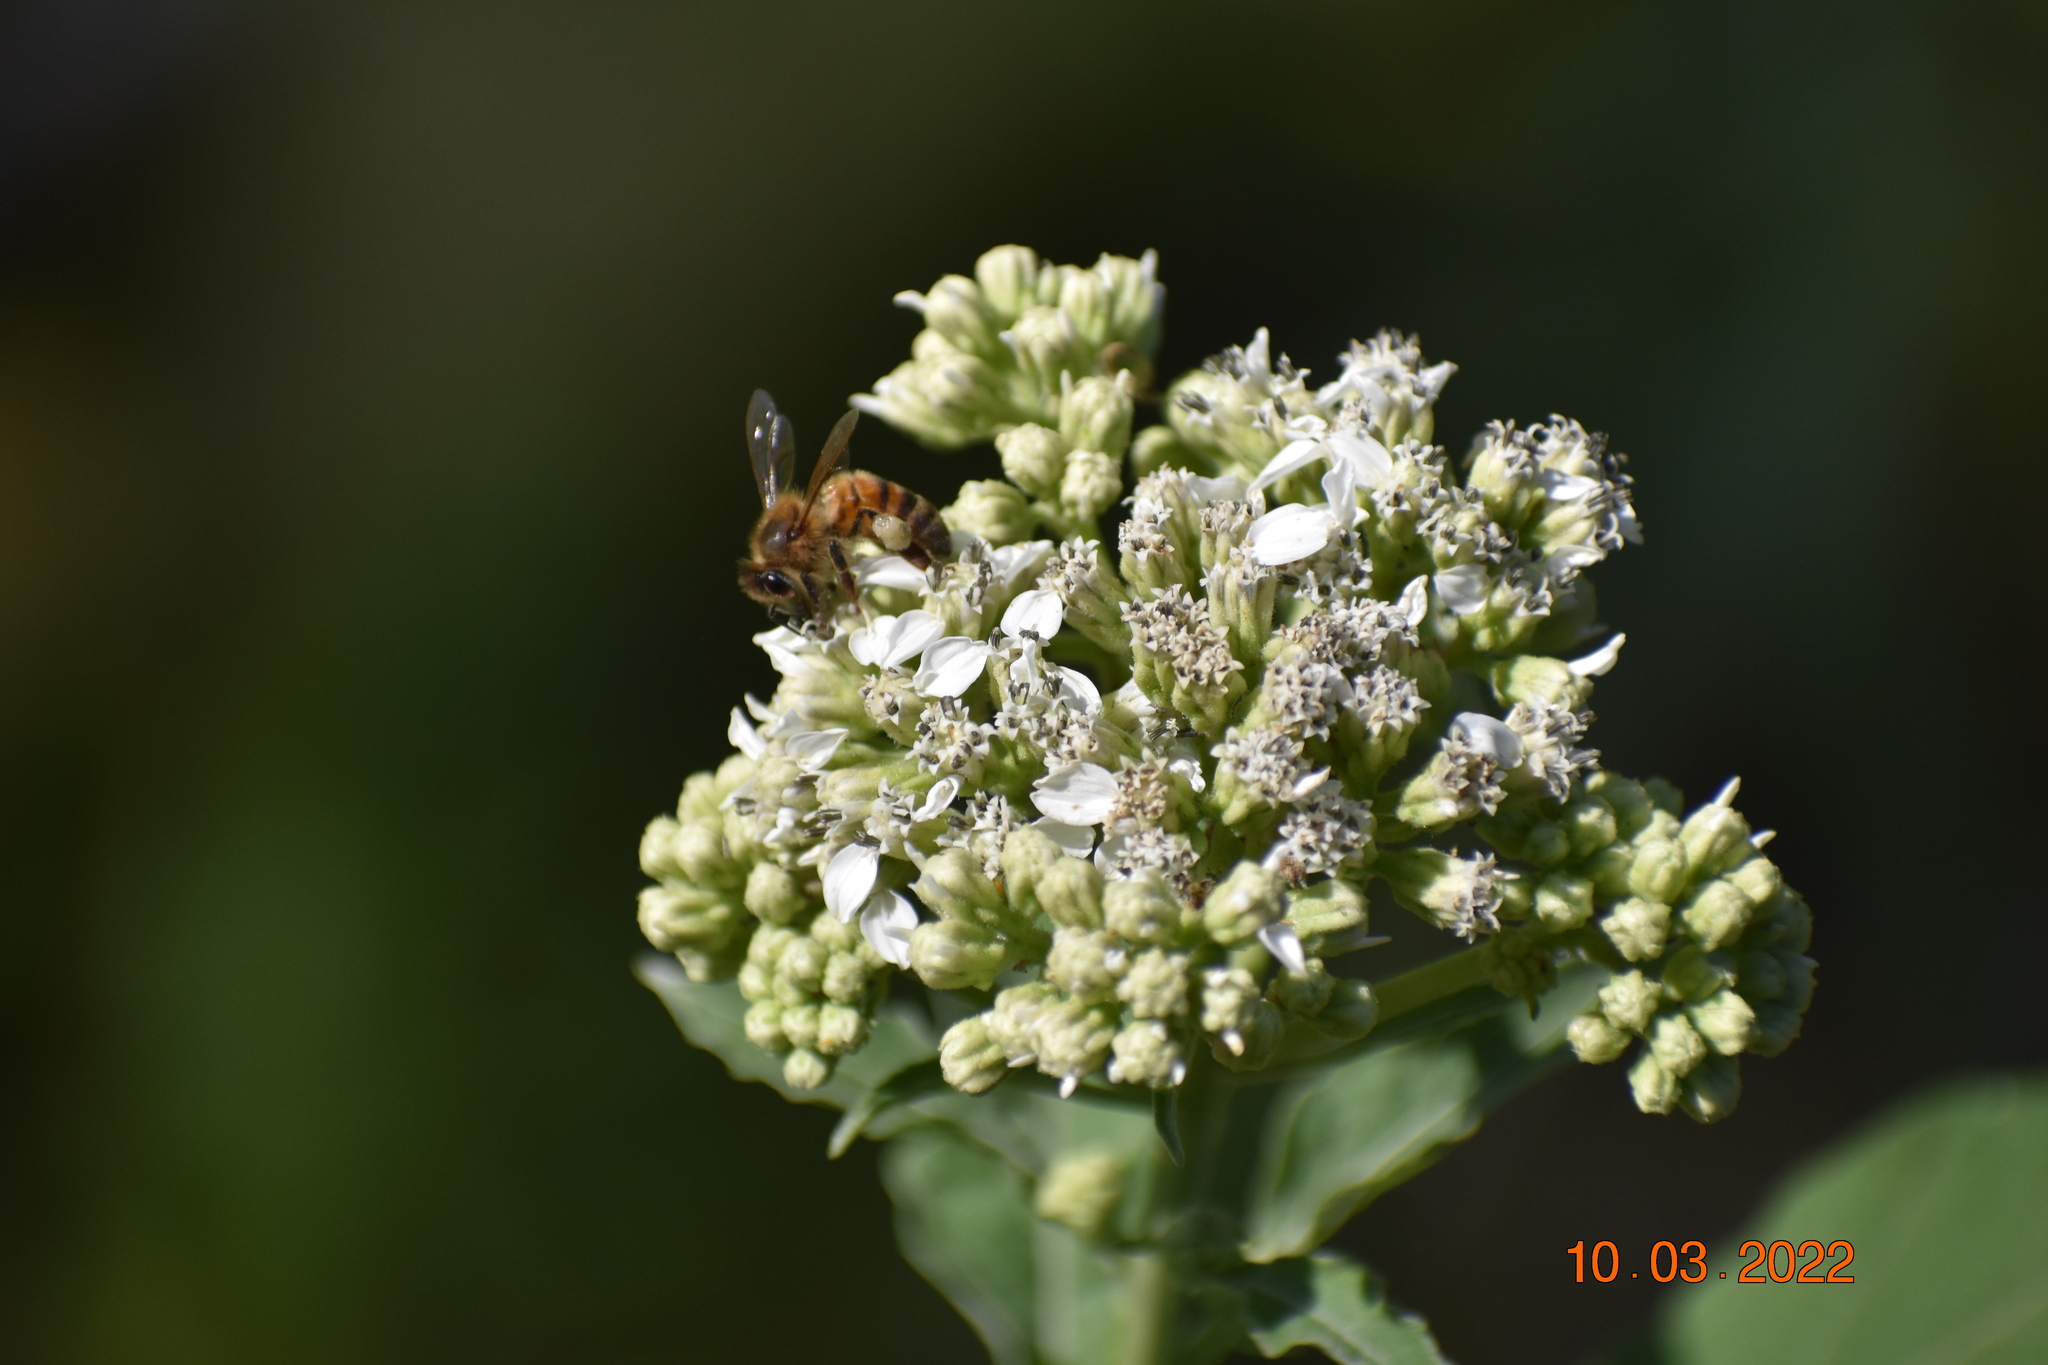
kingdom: Animalia
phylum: Arthropoda
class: Insecta
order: Hymenoptera
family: Apidae
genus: Apis
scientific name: Apis mellifera
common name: Honey bee
